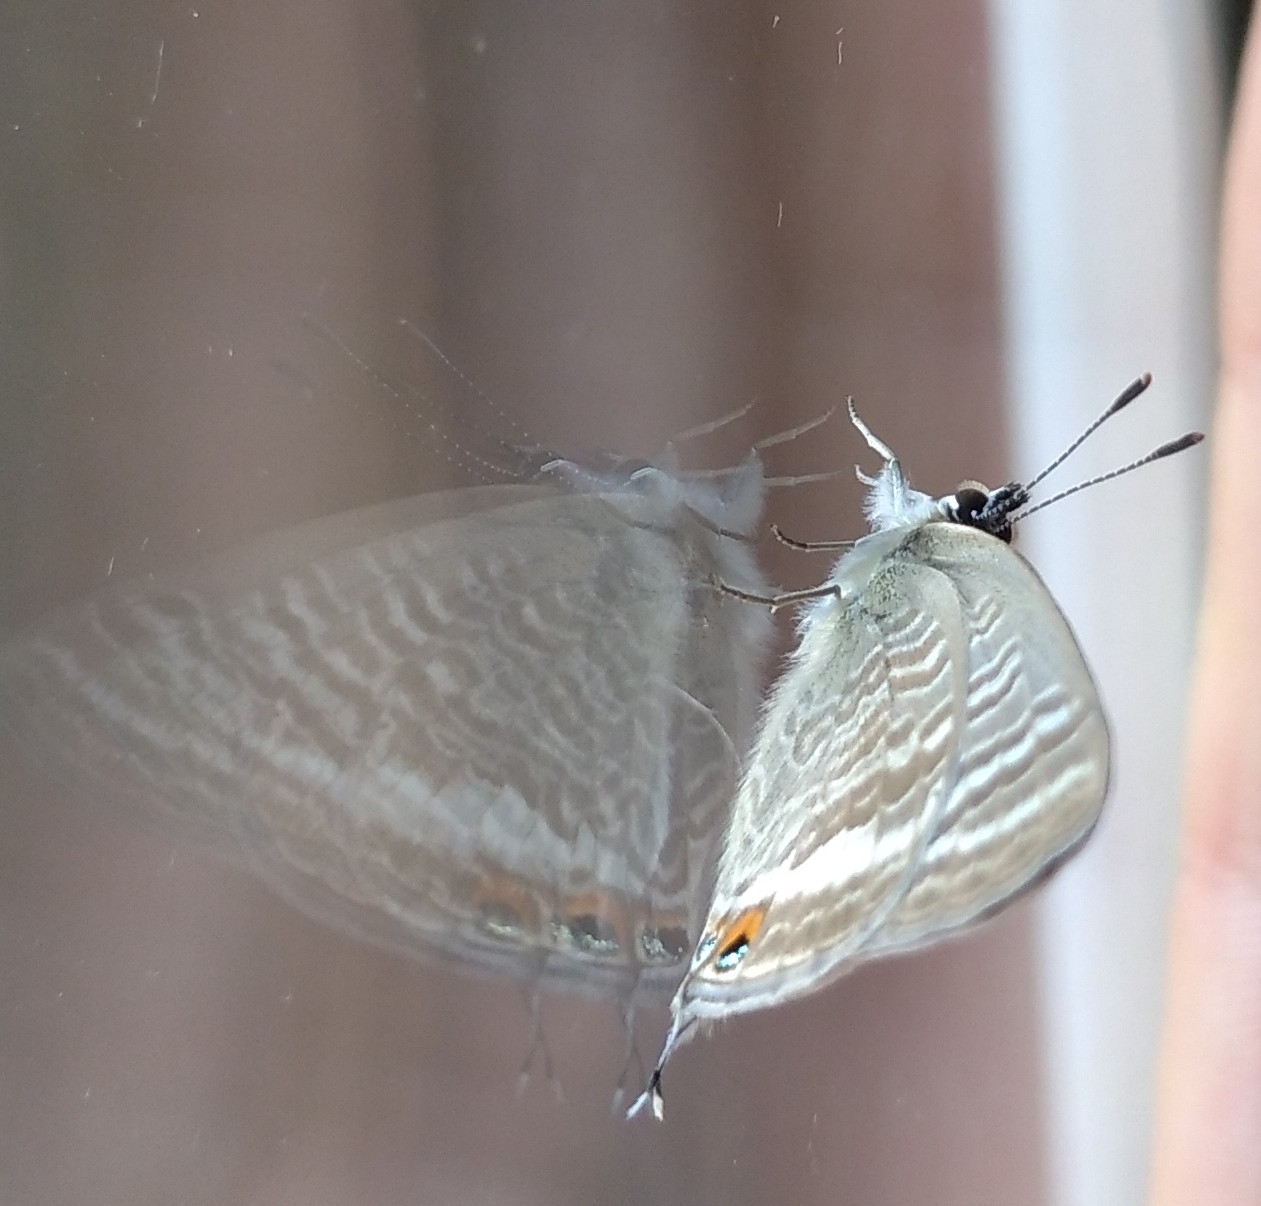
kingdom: Animalia
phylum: Arthropoda
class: Insecta
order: Lepidoptera
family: Lycaenidae
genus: Lampides
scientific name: Lampides boeticus
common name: Long-tailed blue
